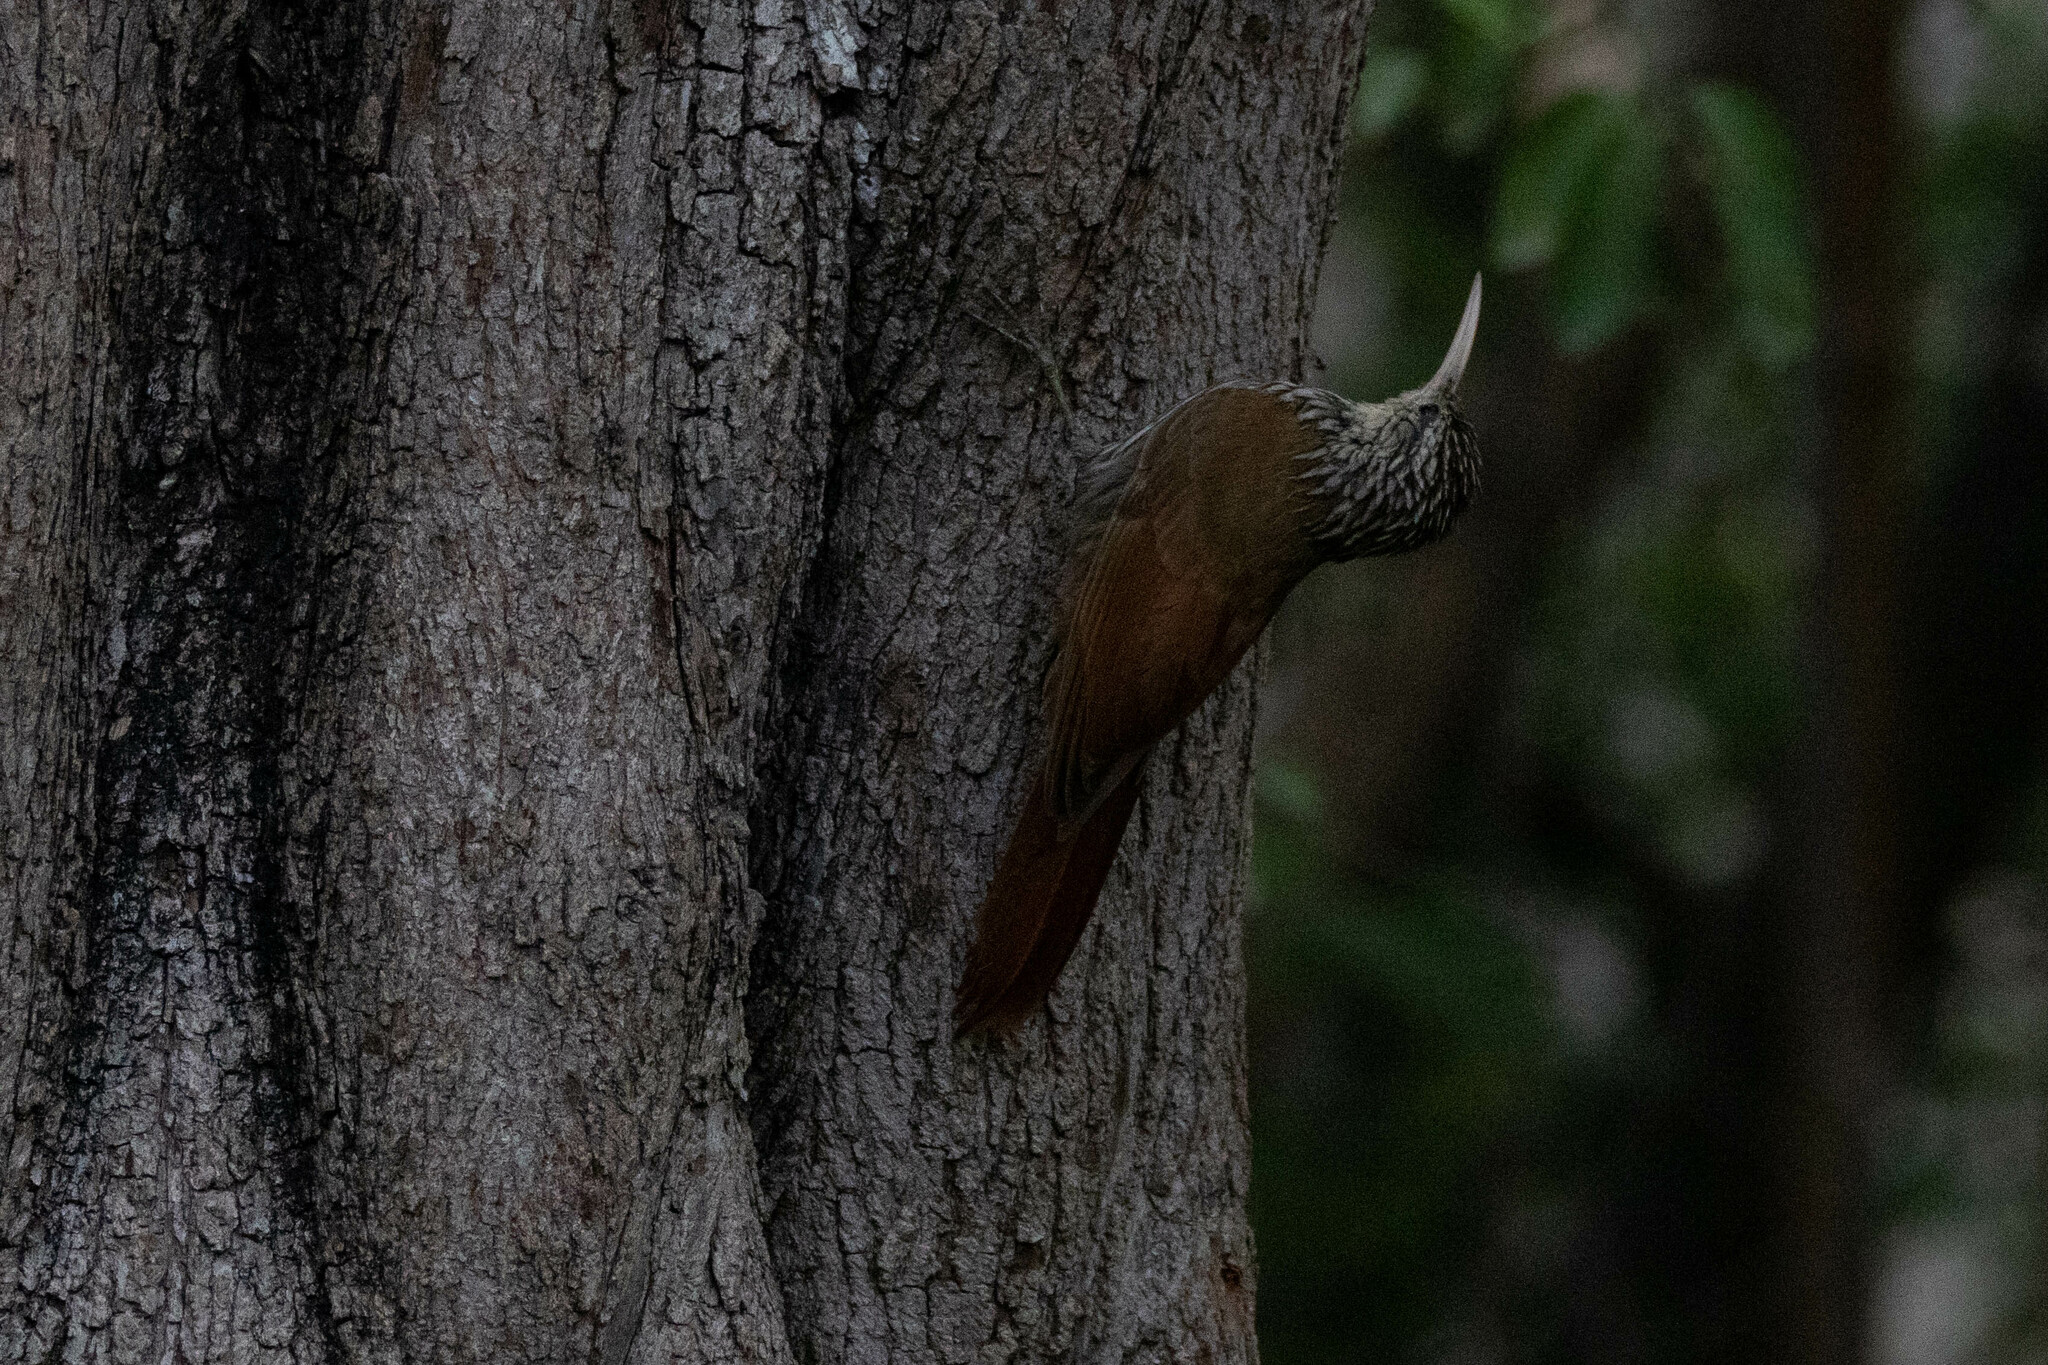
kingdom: Animalia
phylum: Chordata
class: Aves
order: Passeriformes
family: Furnariidae
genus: Lepidocolaptes
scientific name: Lepidocolaptes souleyetii
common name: Streak-headed woodcreeper
